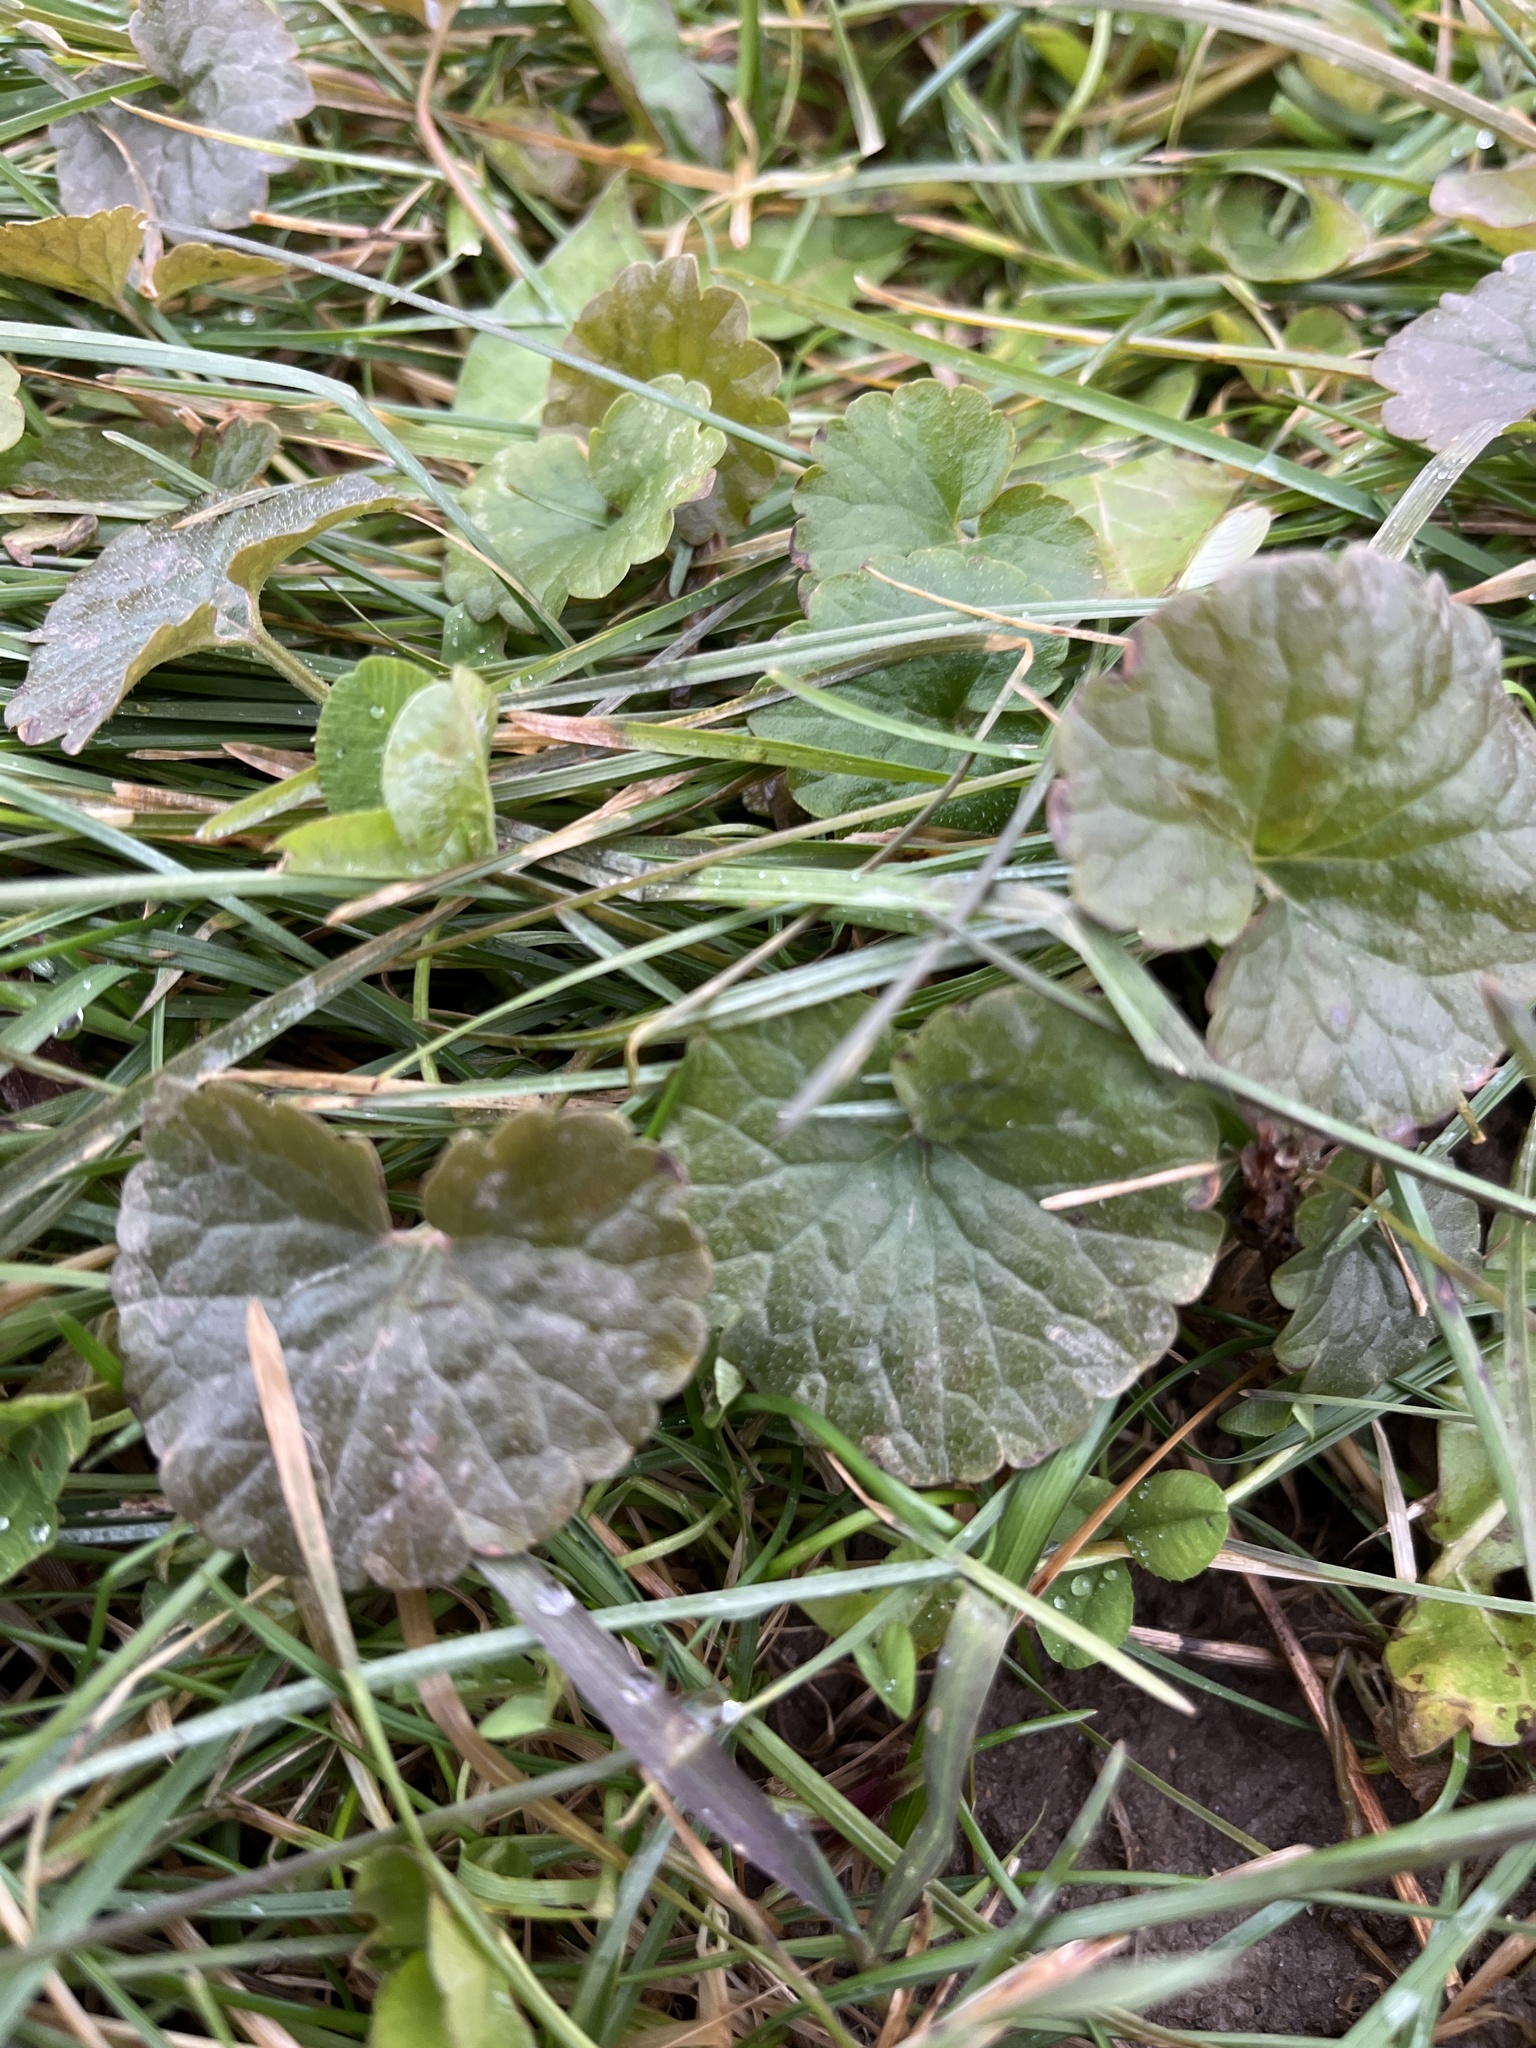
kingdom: Plantae
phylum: Tracheophyta
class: Magnoliopsida
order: Lamiales
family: Lamiaceae
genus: Glechoma
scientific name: Glechoma hederacea
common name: Ground ivy
